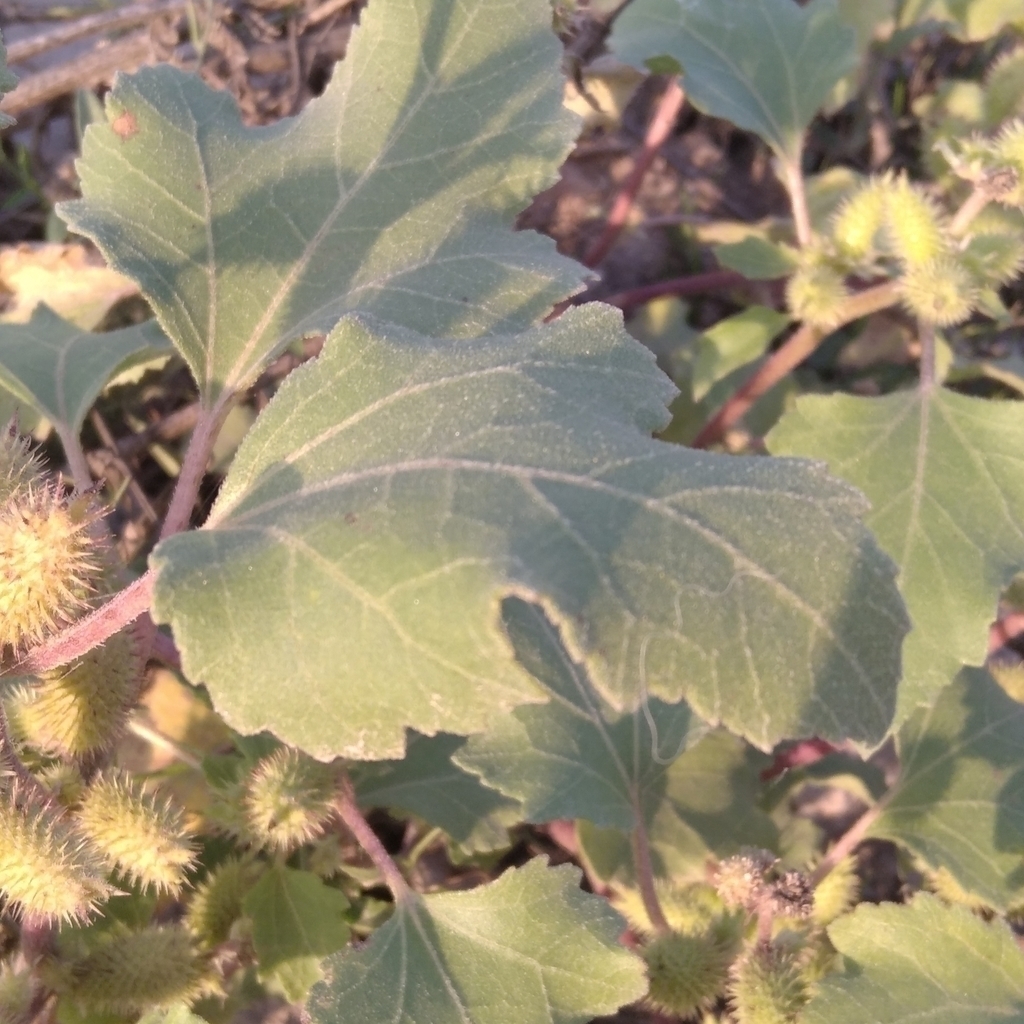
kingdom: Plantae
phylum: Tracheophyta
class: Magnoliopsida
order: Asterales
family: Asteraceae
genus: Xanthium
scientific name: Xanthium orientale
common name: Californian burr
